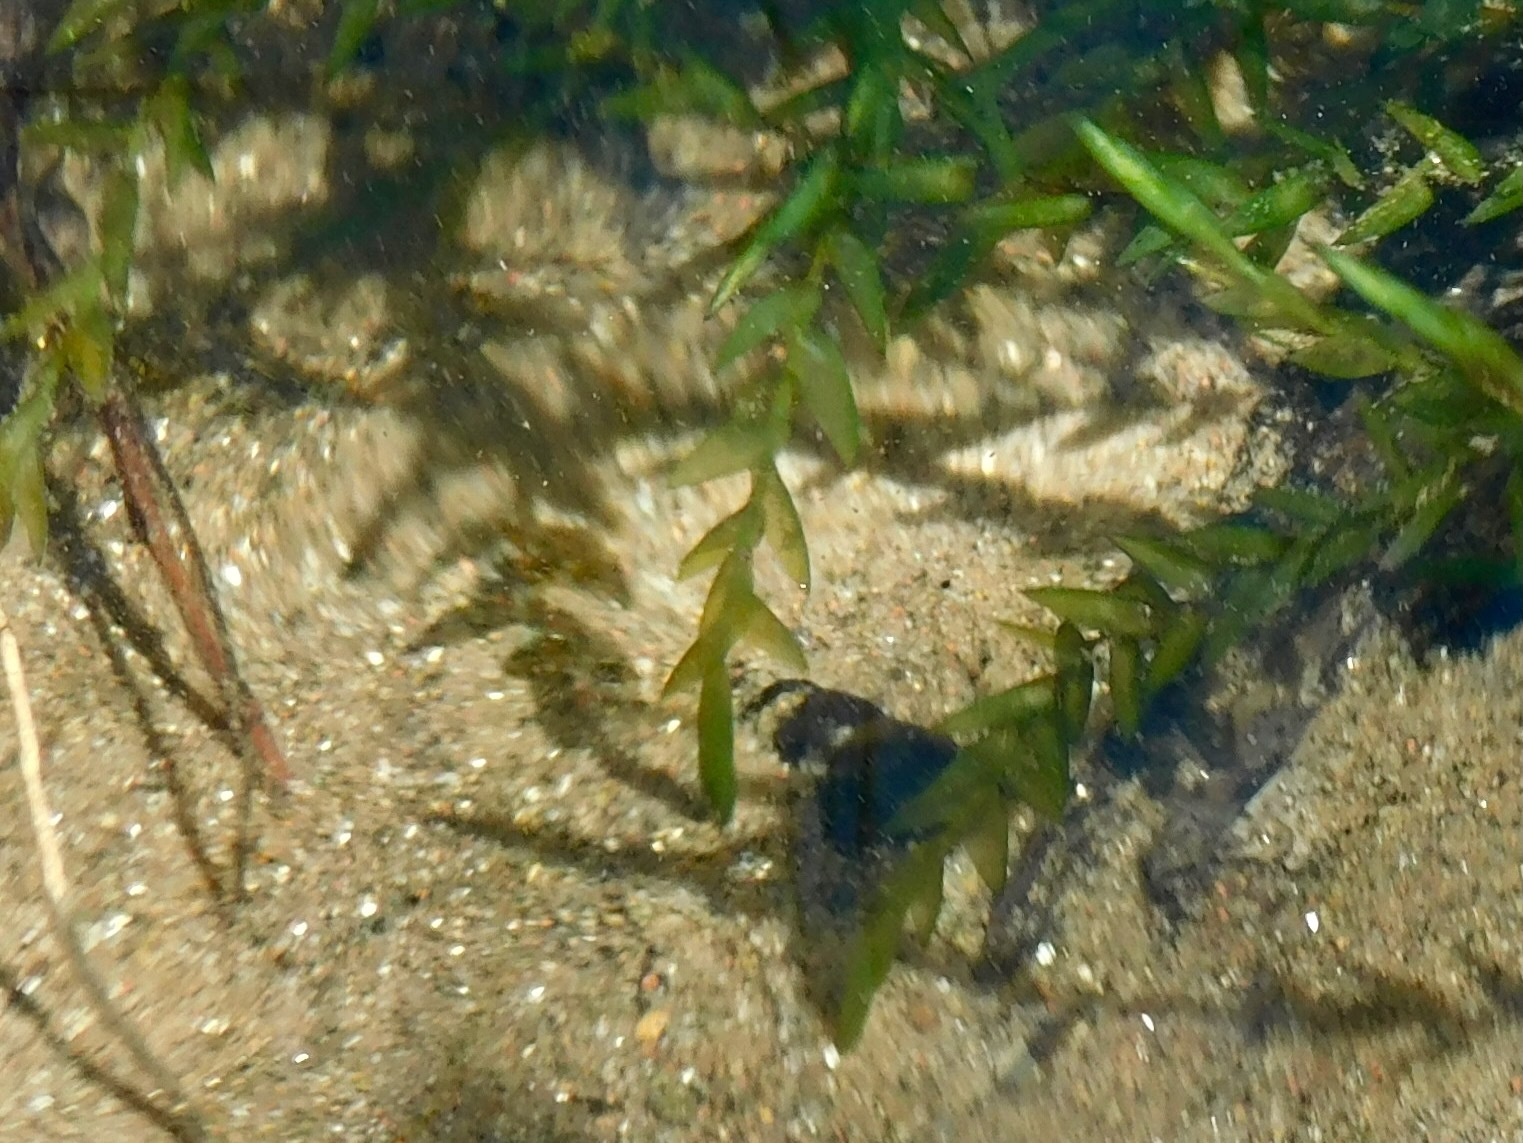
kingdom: Plantae
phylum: Bryophyta
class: Bryopsida
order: Hypnales
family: Fontinalaceae
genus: Fontinalis
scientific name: Fontinalis novae-angliae
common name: New england water moss
